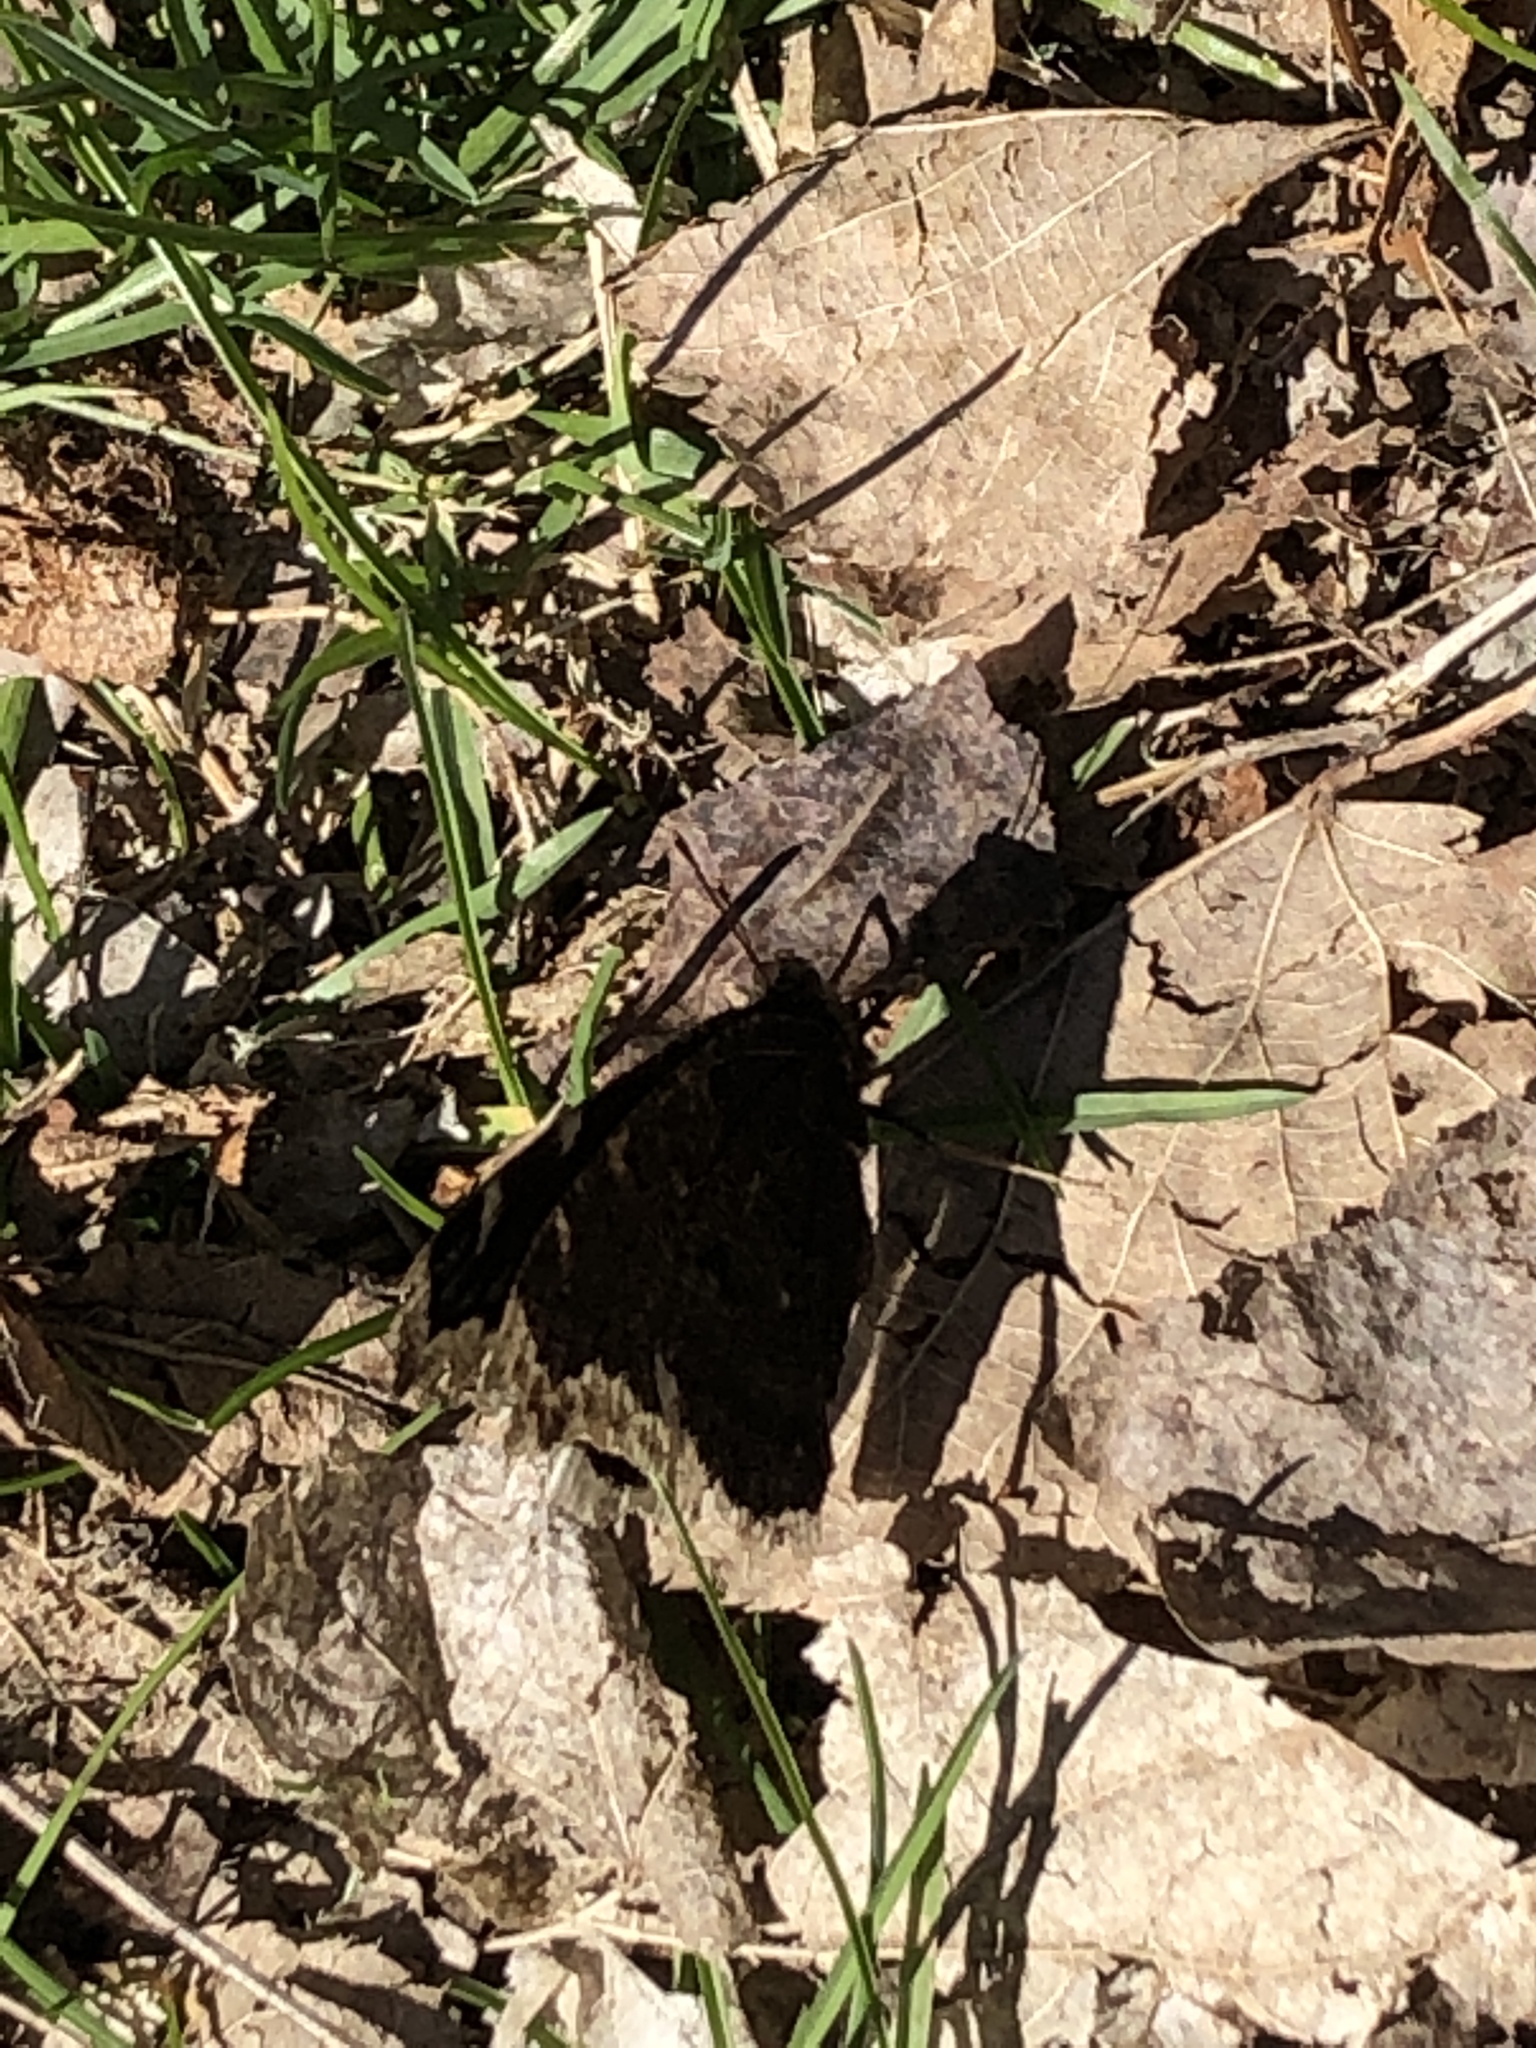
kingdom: Animalia
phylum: Arthropoda
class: Insecta
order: Lepidoptera
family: Nymphalidae
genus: Nymphalis
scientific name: Nymphalis antiopa
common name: Camberwell beauty
